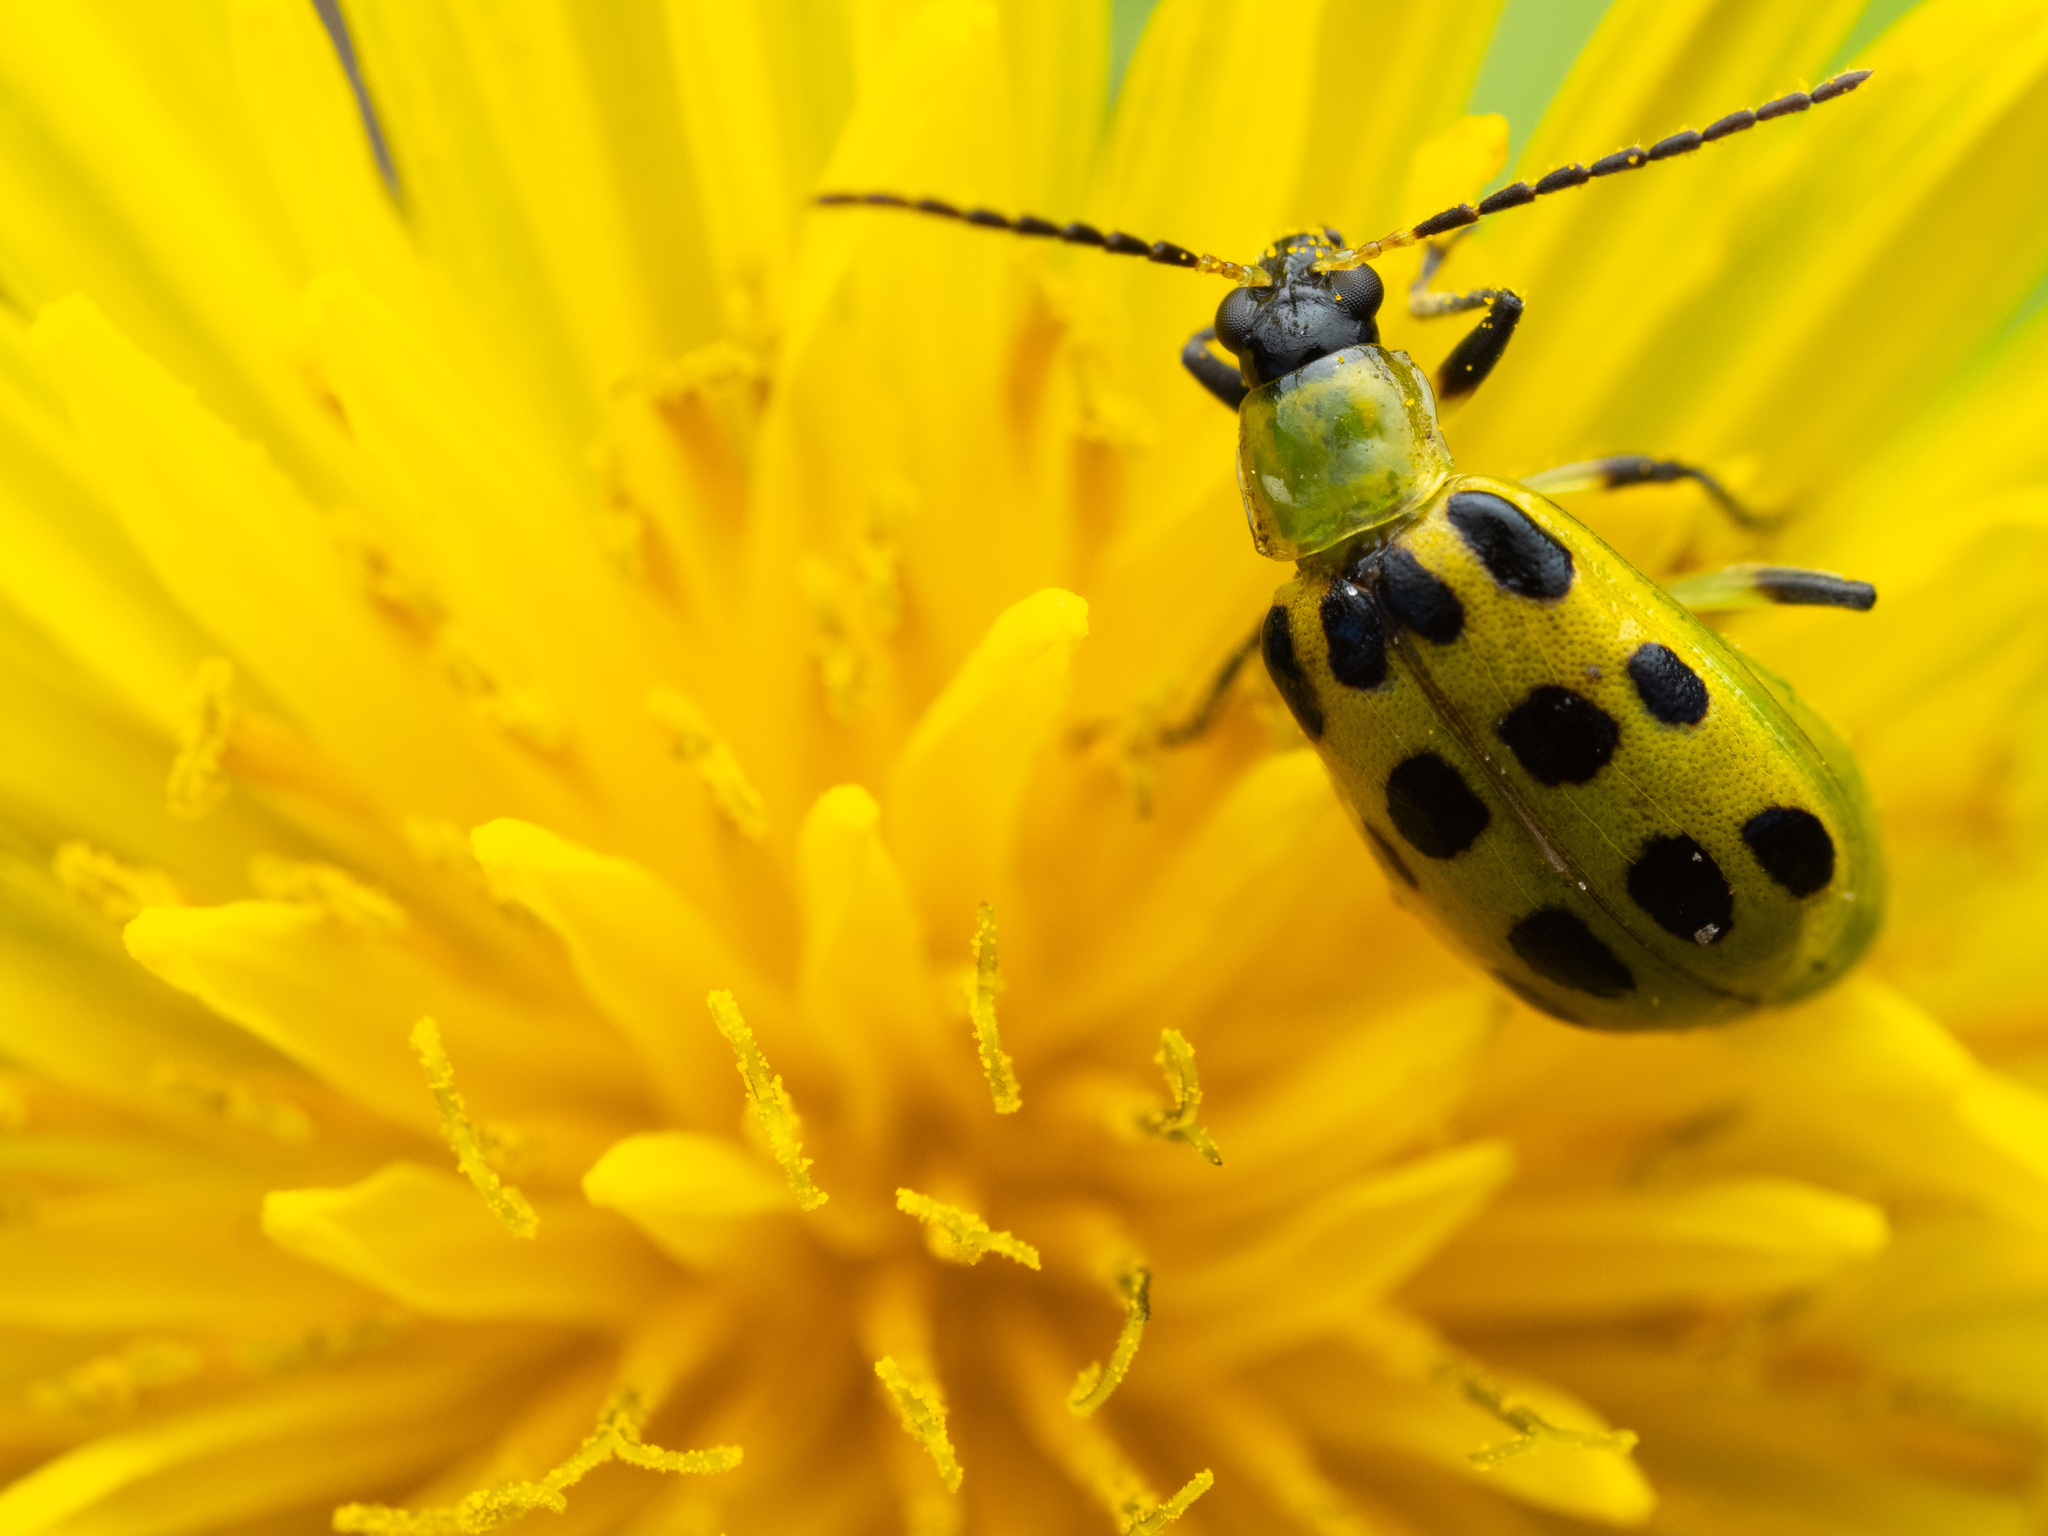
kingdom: Animalia
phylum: Arthropoda
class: Insecta
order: Coleoptera
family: Chrysomelidae
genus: Diabrotica
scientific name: Diabrotica undecimpunctata
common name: Spotted cucumber beetle
